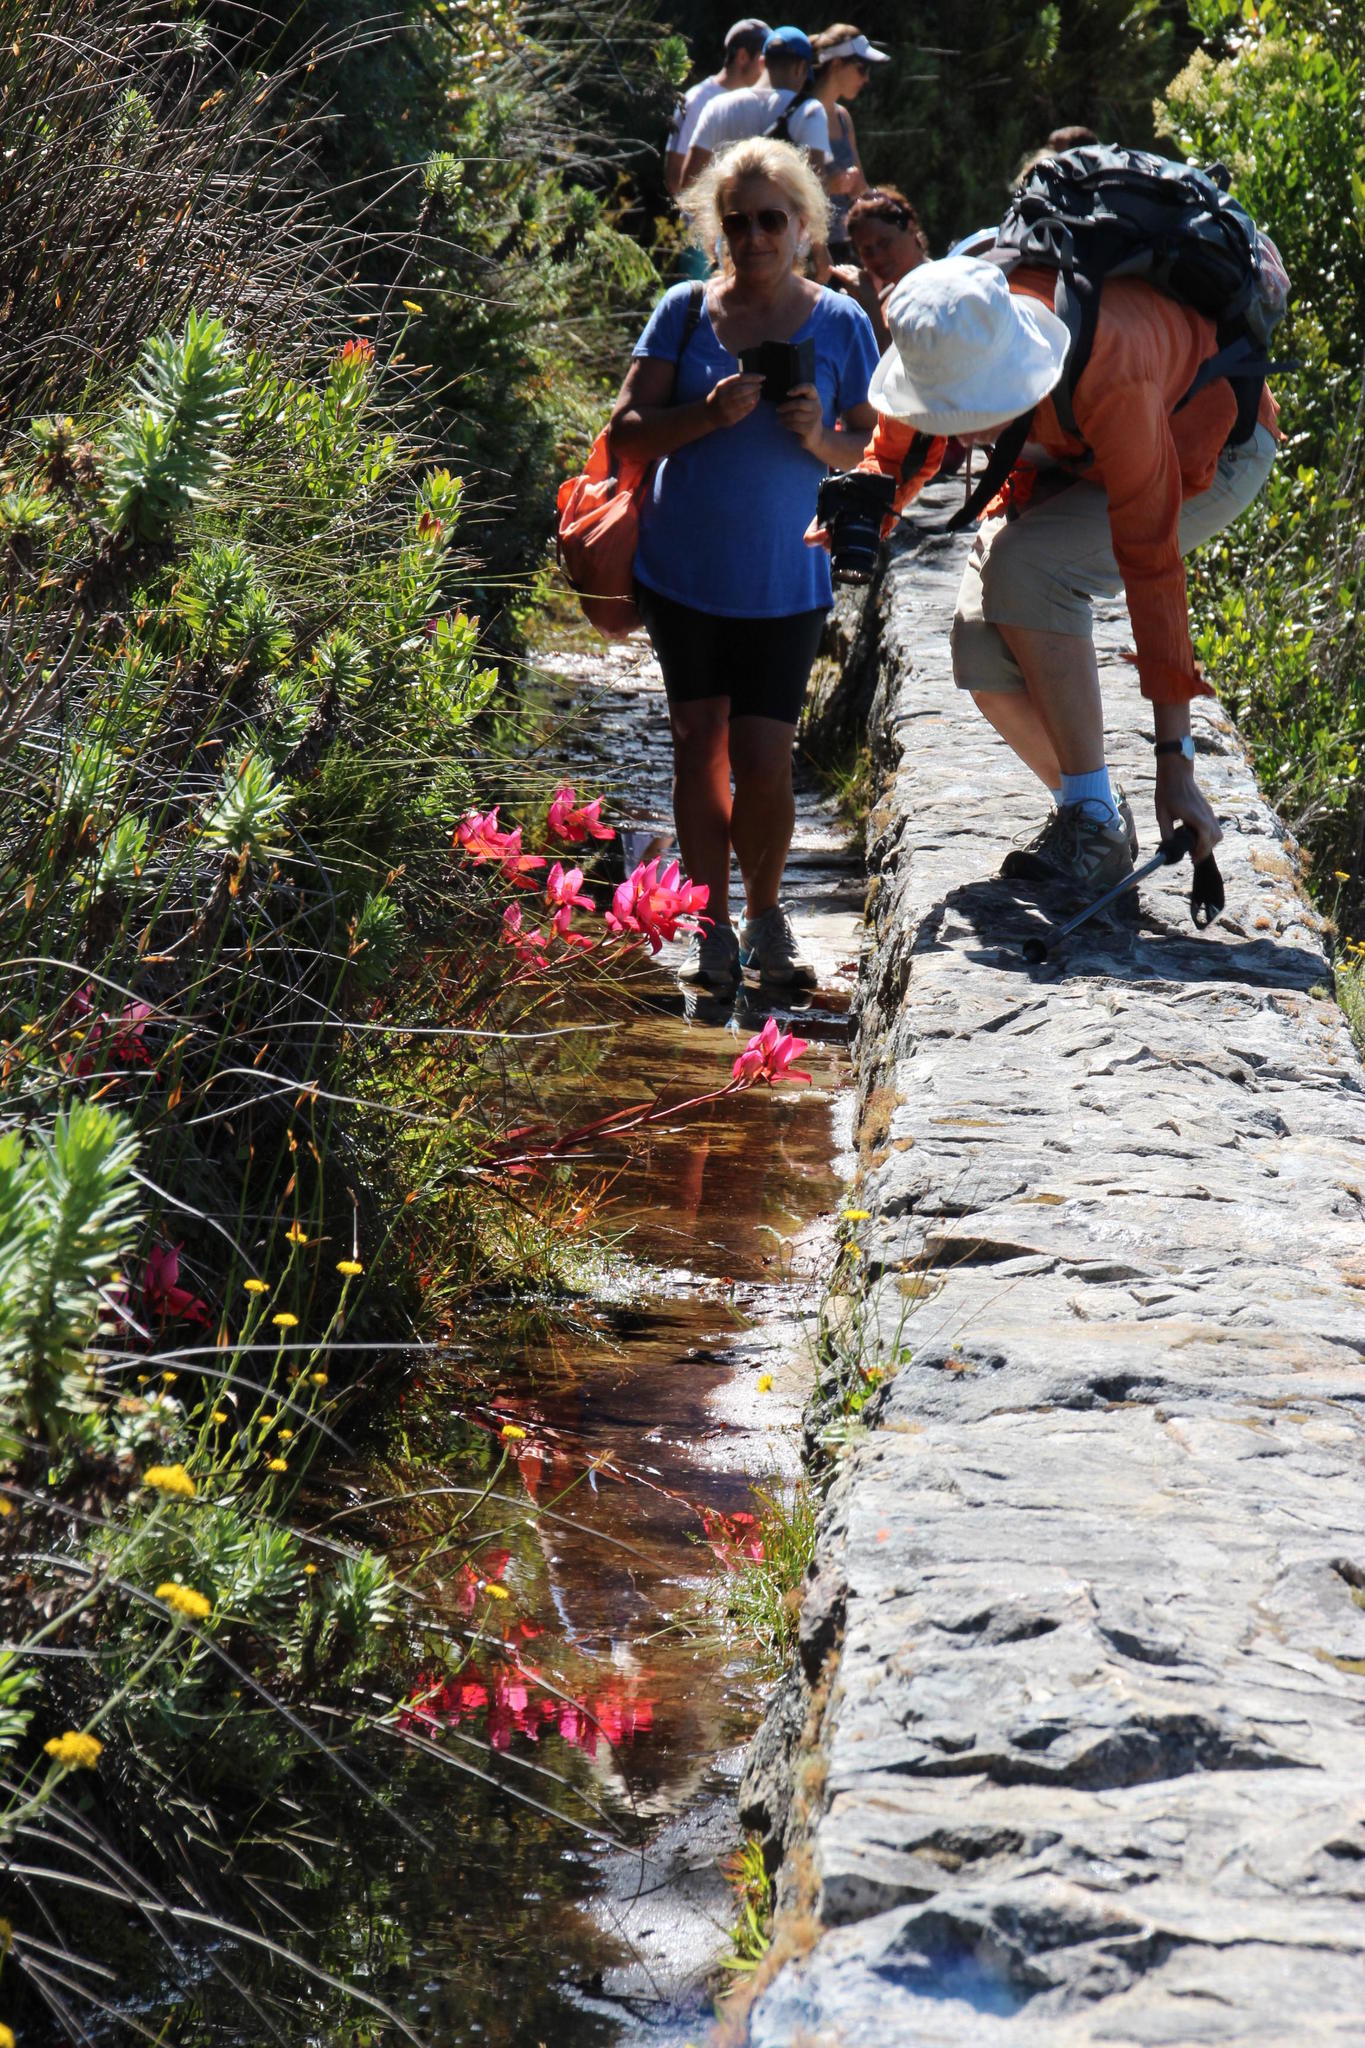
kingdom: Plantae
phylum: Tracheophyta
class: Liliopsida
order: Asparagales
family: Orchidaceae
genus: Disa
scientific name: Disa uniflora
